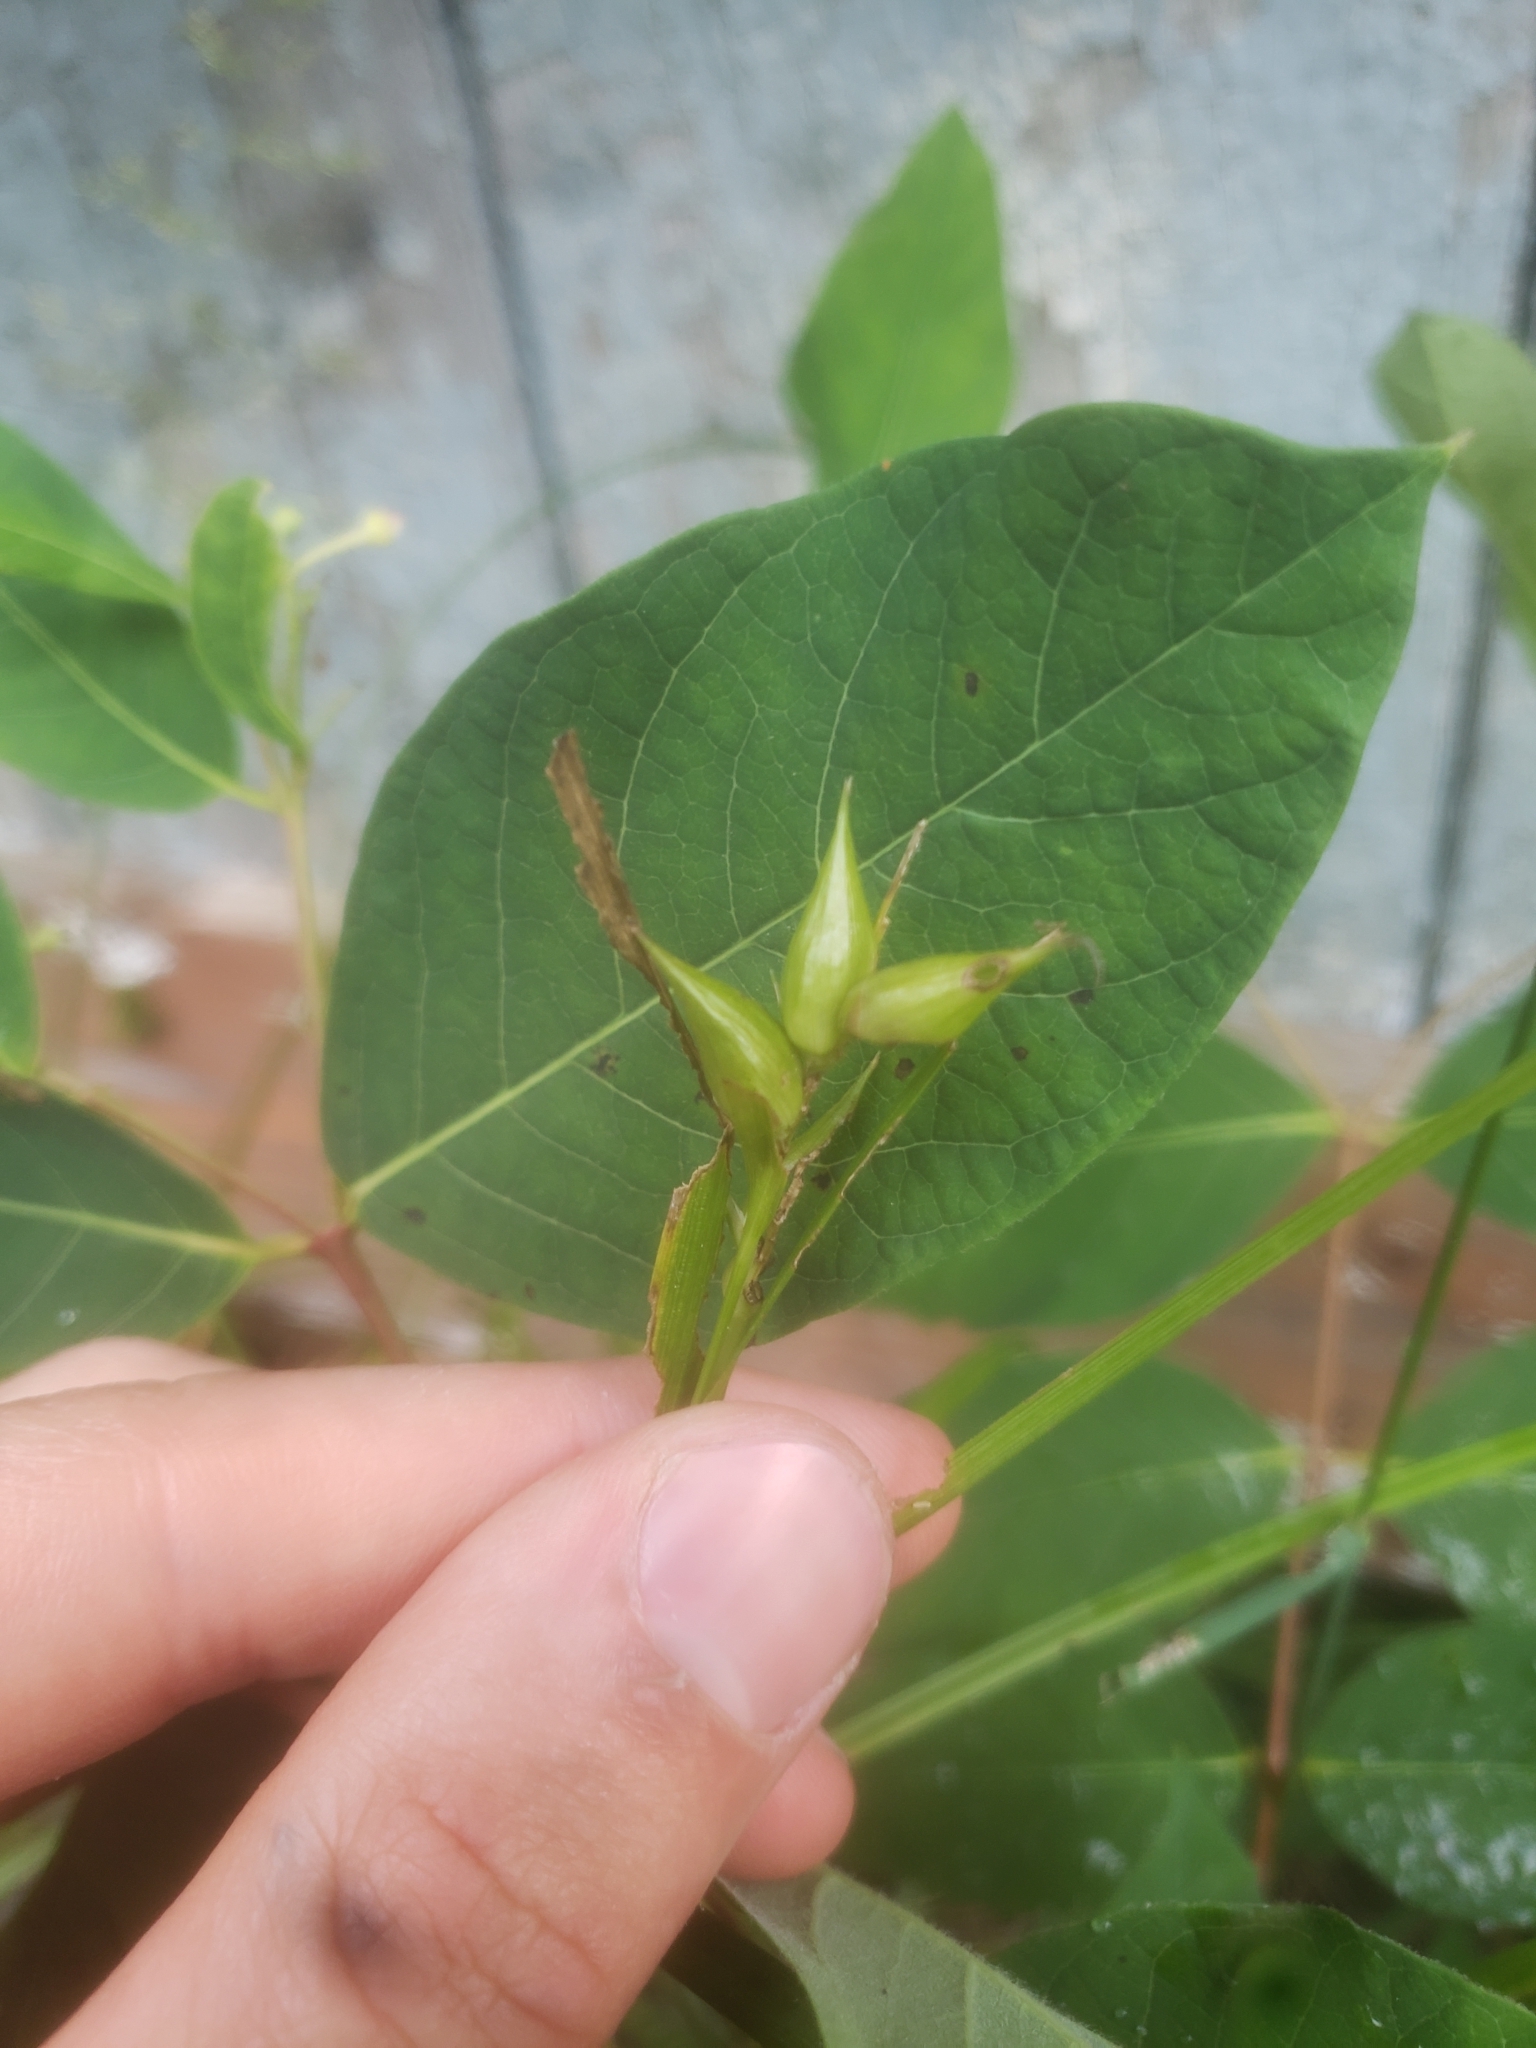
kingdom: Plantae
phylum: Tracheophyta
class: Liliopsida
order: Poales
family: Cyperaceae
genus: Carex
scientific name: Carex intumescens
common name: Greater bladder sedge
